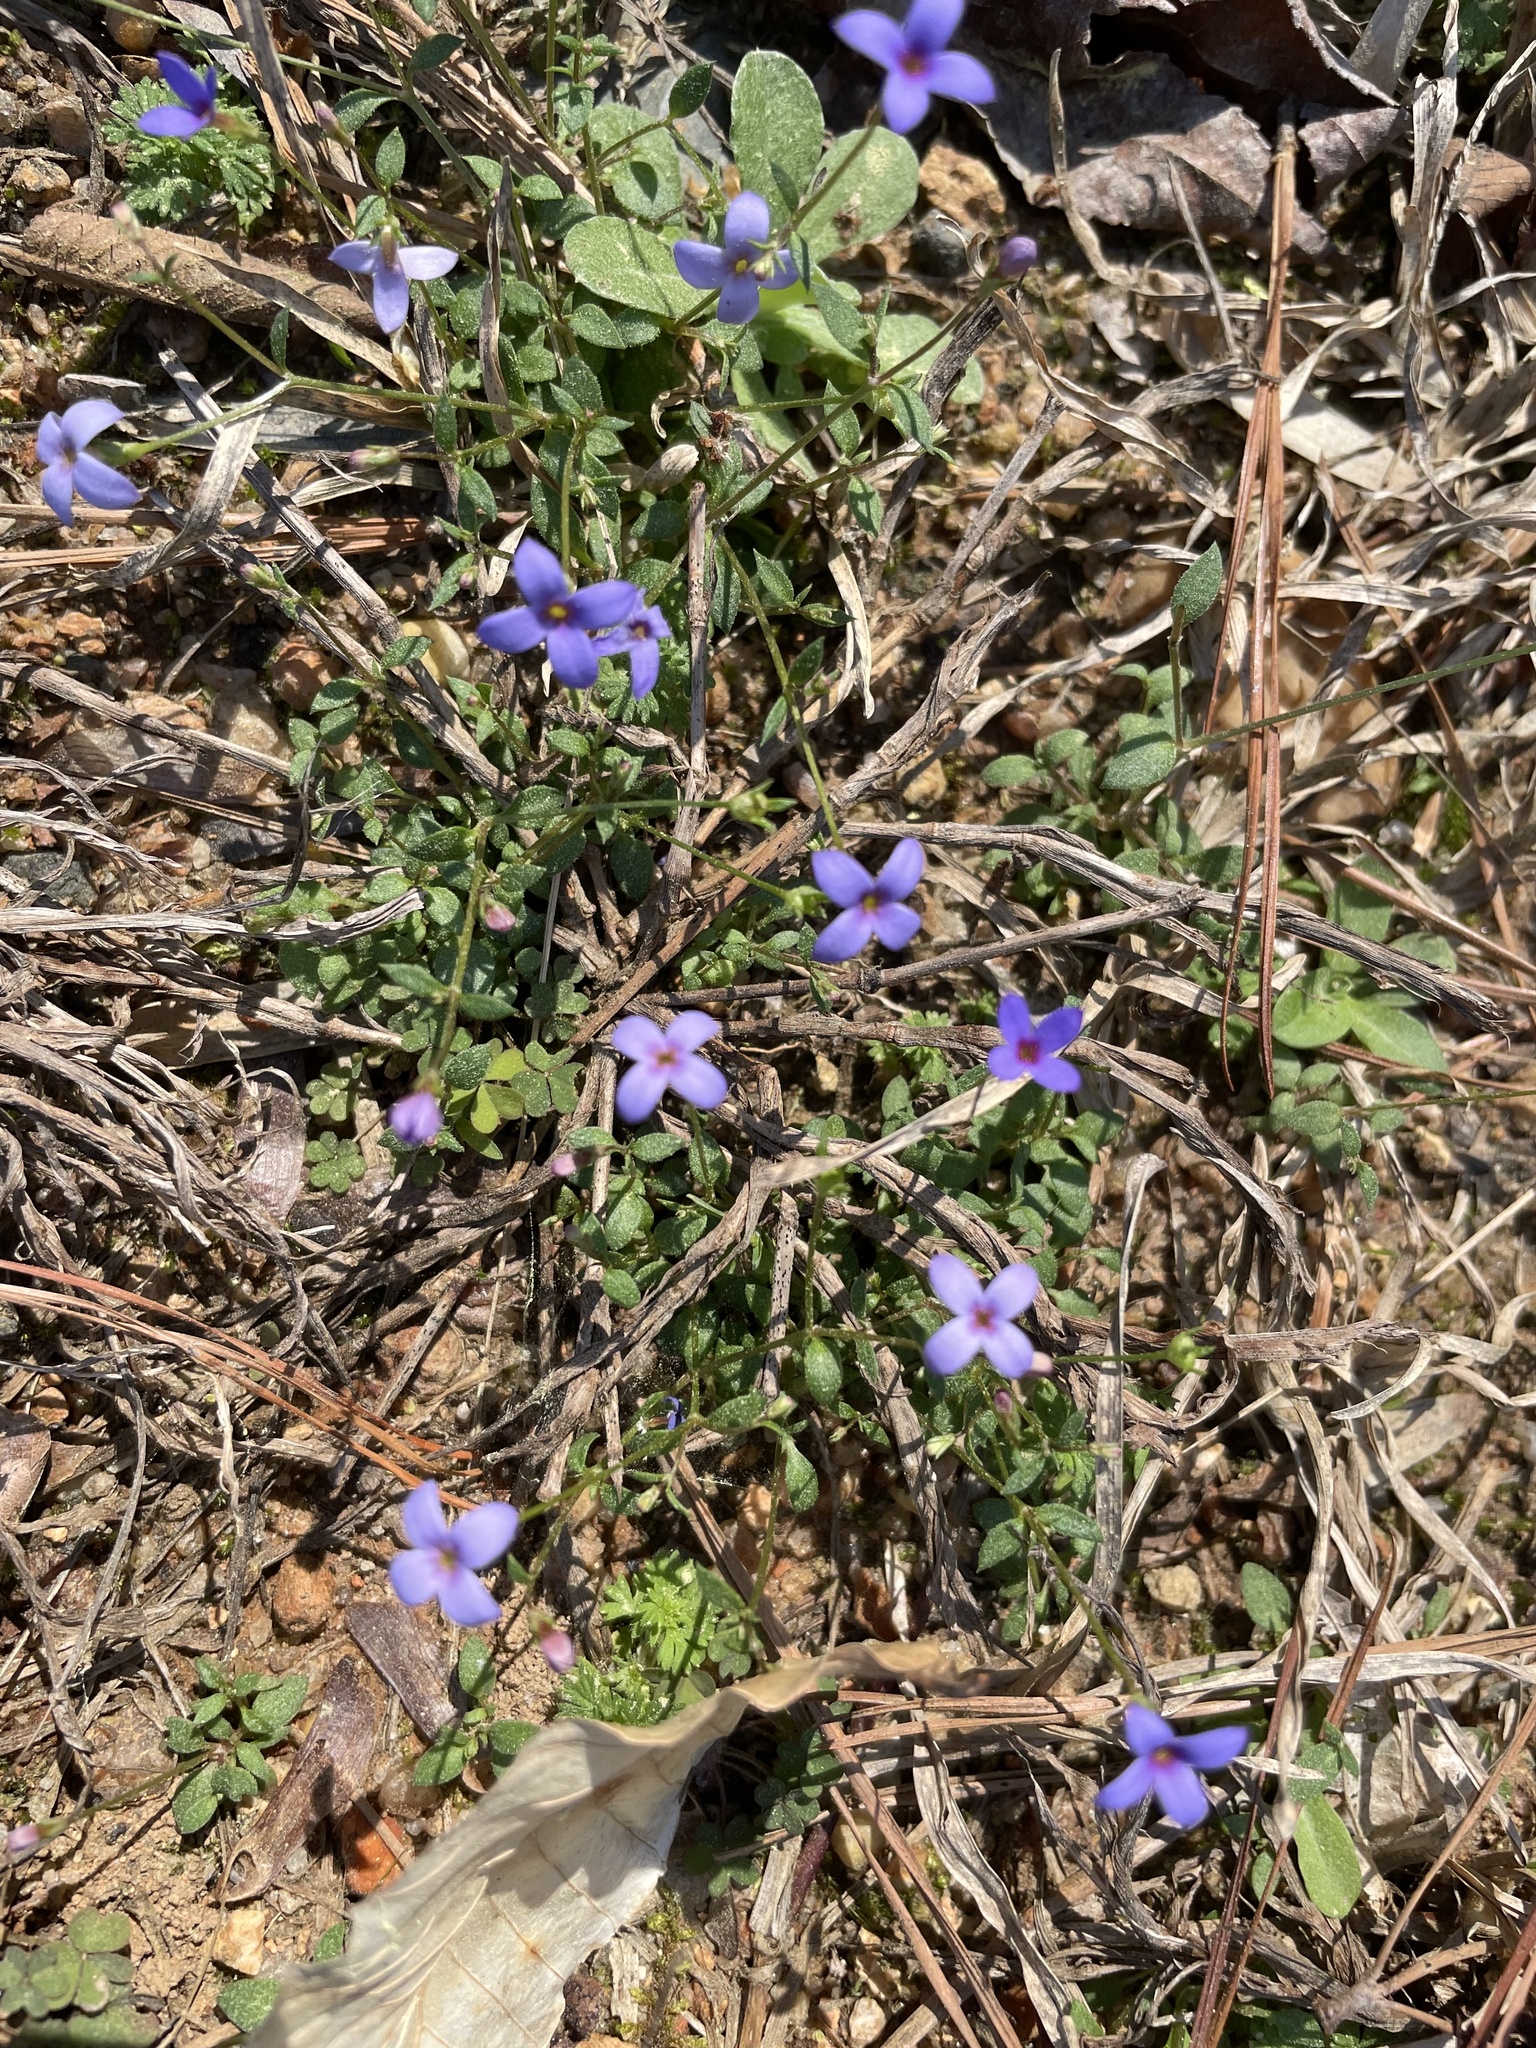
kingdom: Plantae
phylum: Tracheophyta
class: Magnoliopsida
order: Gentianales
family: Rubiaceae
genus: Houstonia
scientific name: Houstonia pusilla
